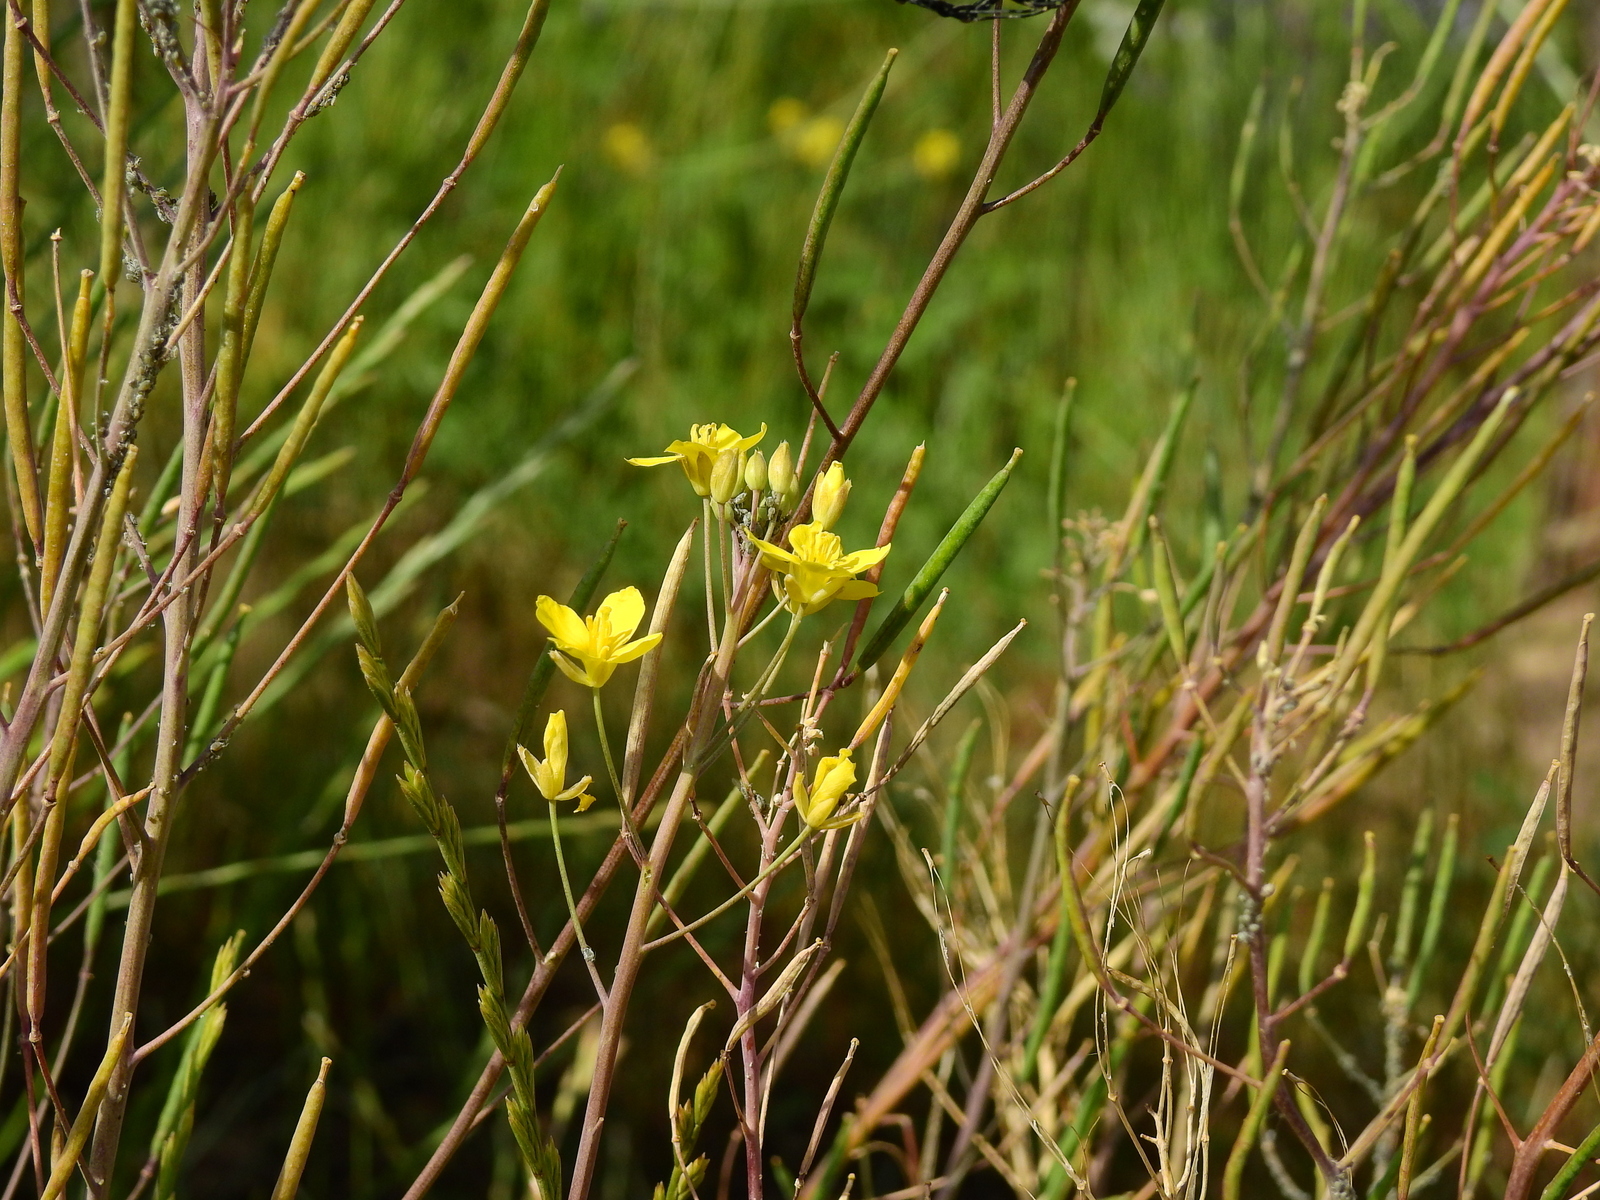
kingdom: Plantae
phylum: Tracheophyta
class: Magnoliopsida
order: Brassicales
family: Brassicaceae
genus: Diplotaxis
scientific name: Diplotaxis tenuifolia
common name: Perennial wall-rocket
